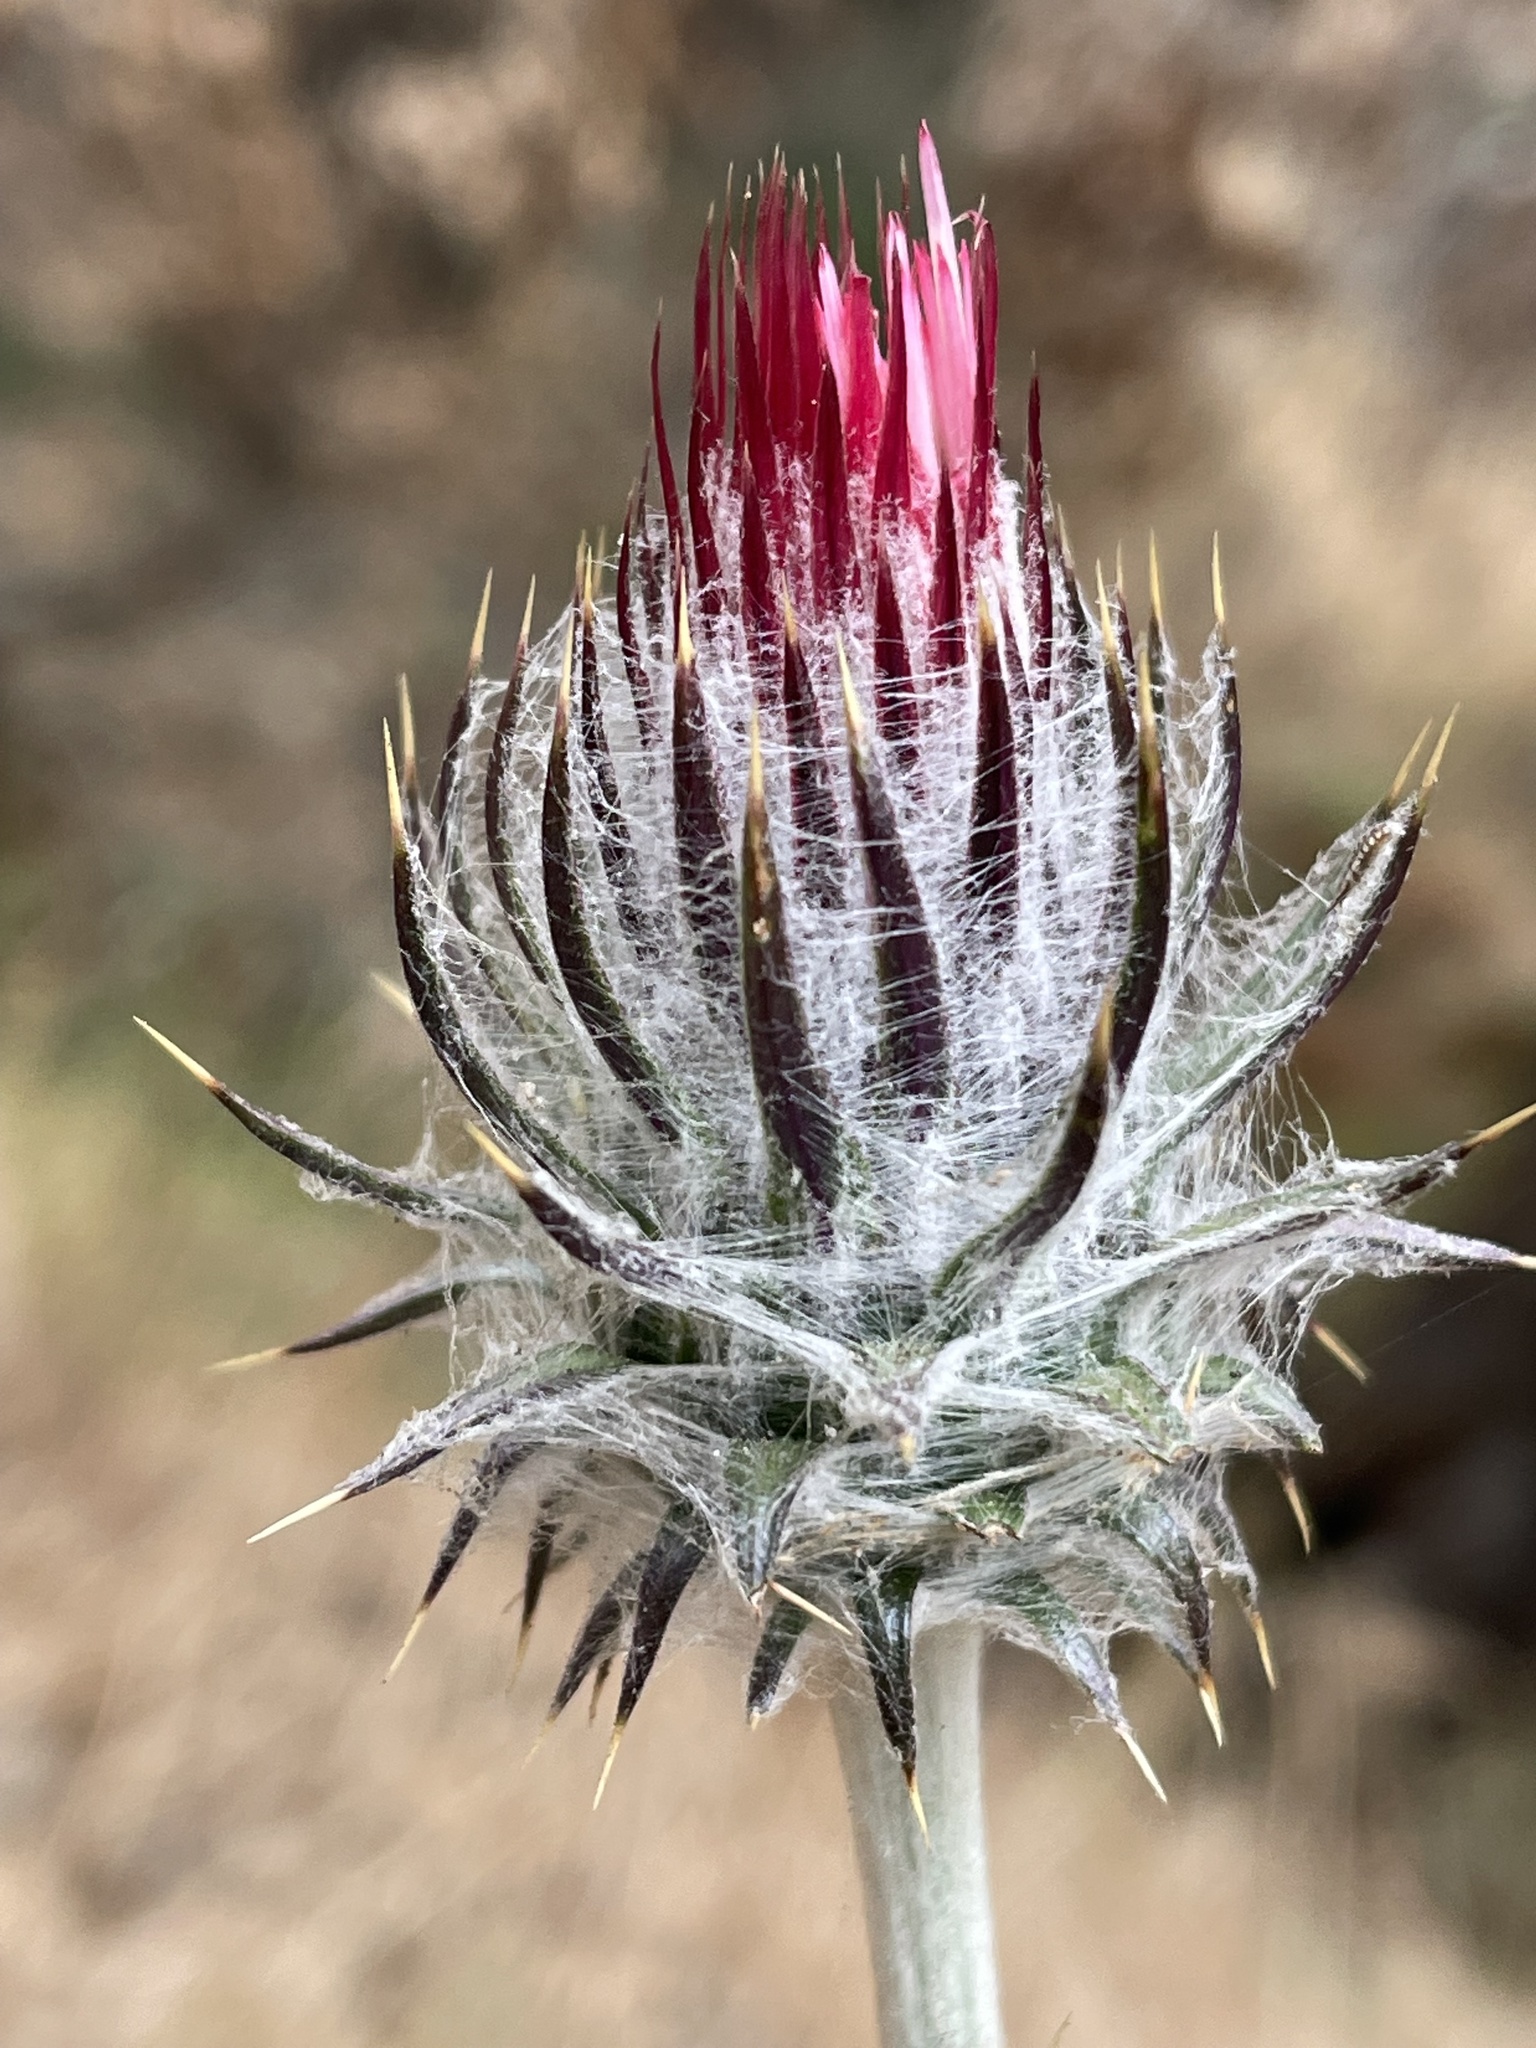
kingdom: Plantae
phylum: Tracheophyta
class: Magnoliopsida
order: Asterales
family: Asteraceae
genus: Cirsium
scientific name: Cirsium occidentale
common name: Western thistle
